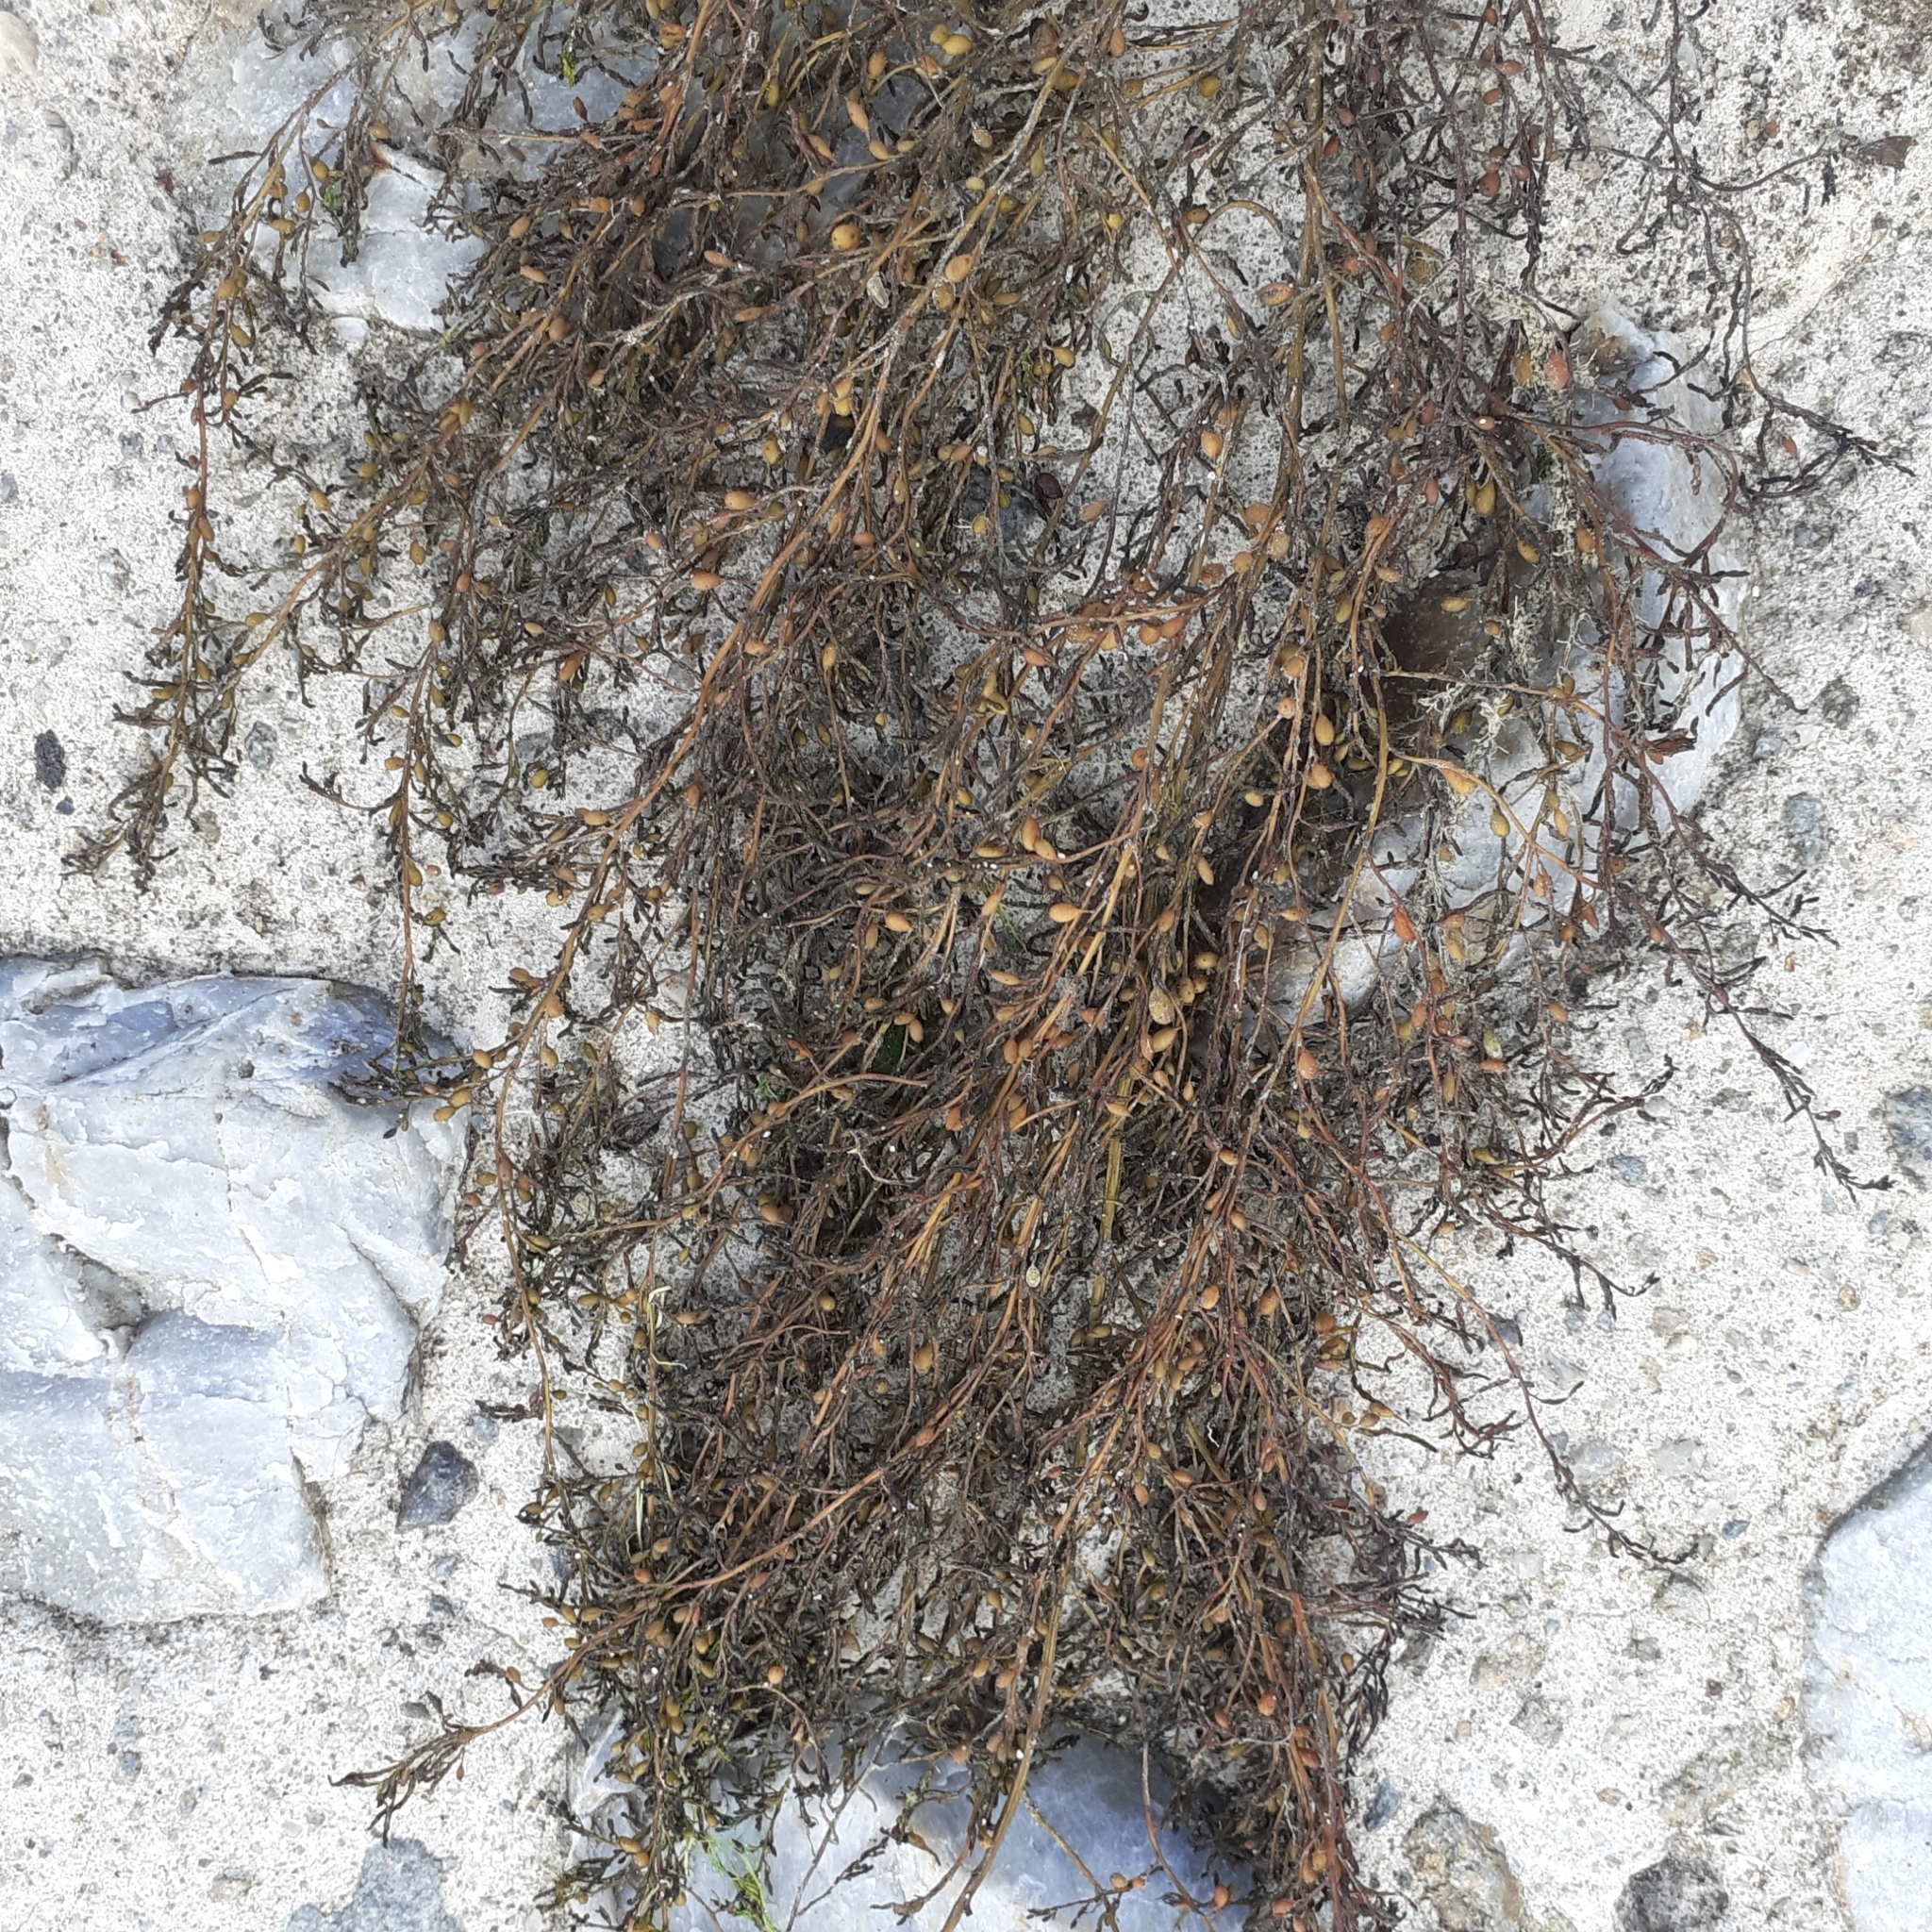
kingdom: Chromista
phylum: Ochrophyta
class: Phaeophyceae
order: Fucales
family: Sargassaceae
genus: Sargassum
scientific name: Sargassum muticum
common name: Japweed
